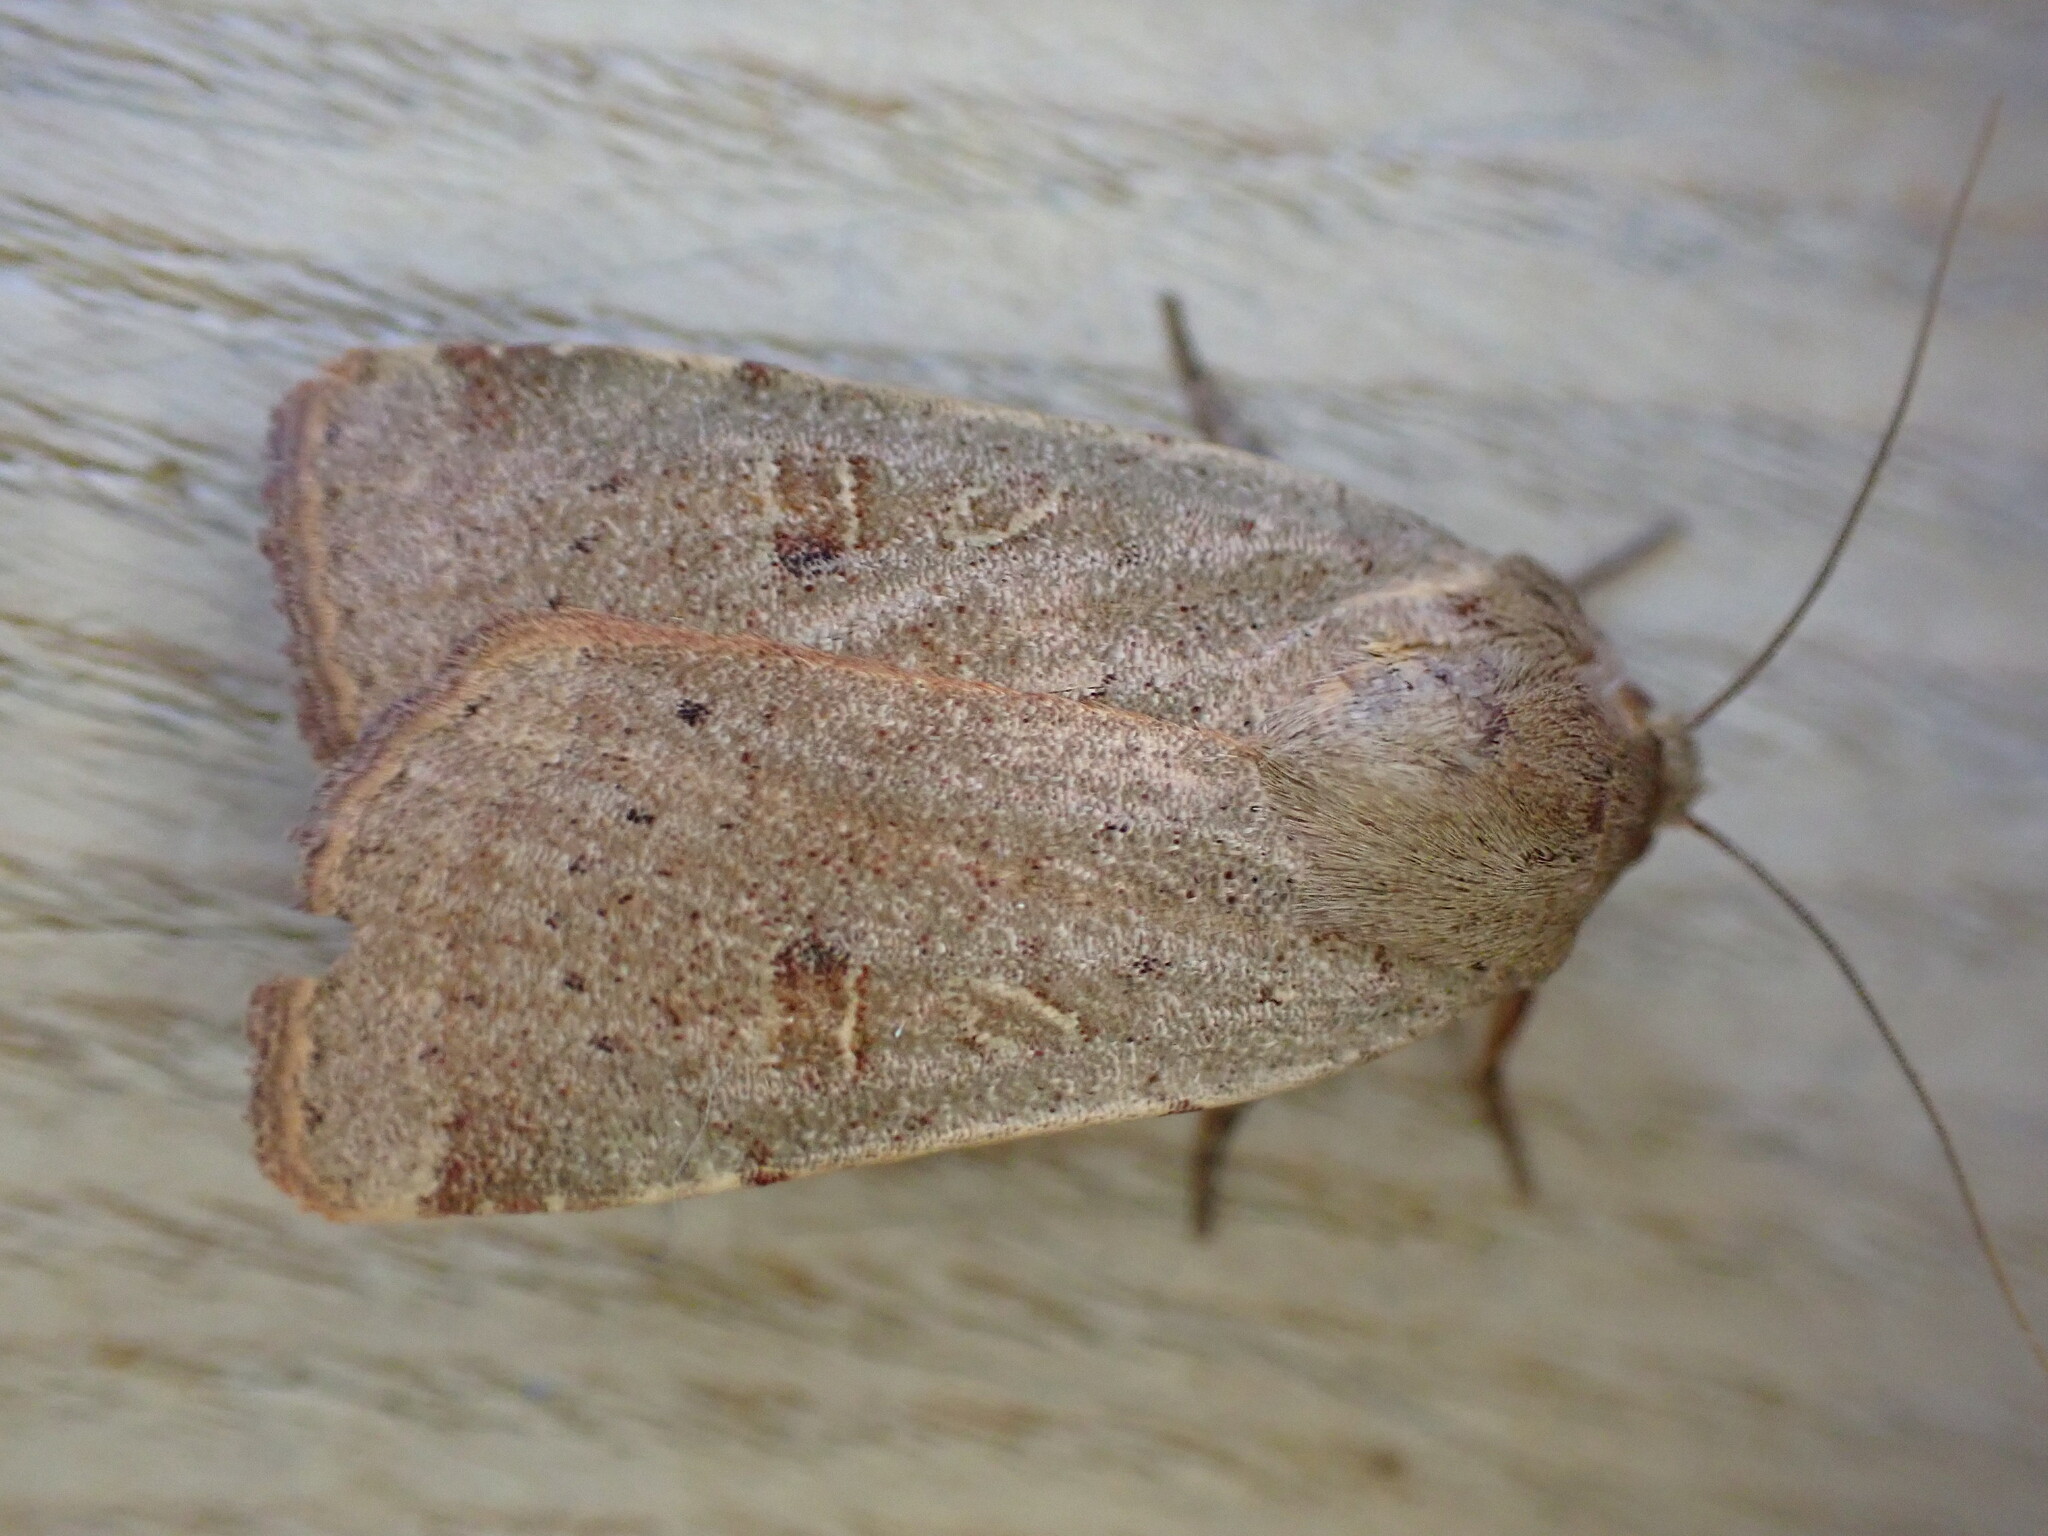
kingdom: Animalia
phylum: Arthropoda
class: Insecta
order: Lepidoptera
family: Noctuidae
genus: Noctua
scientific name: Noctua comes
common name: Lesser yellow underwing
